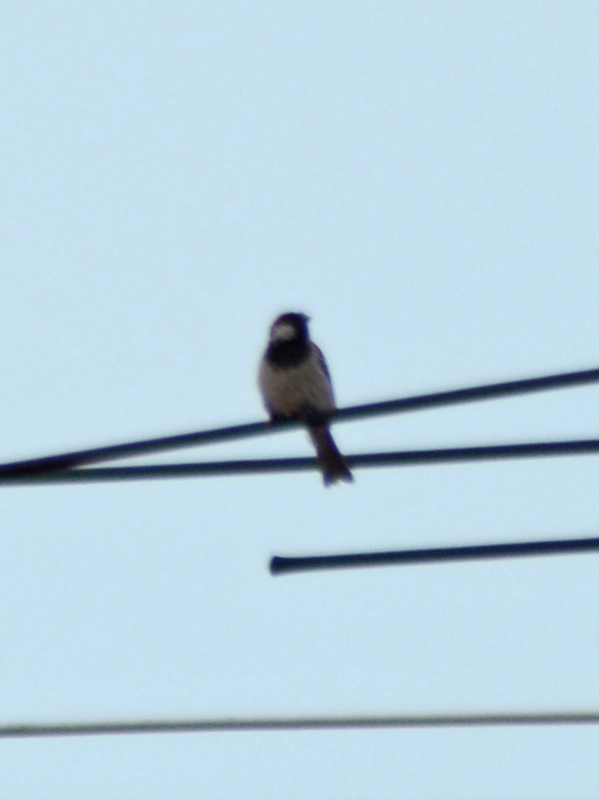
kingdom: Animalia
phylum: Chordata
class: Aves
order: Passeriformes
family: Passeridae
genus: Passer
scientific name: Passer domesticus
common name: House sparrow
